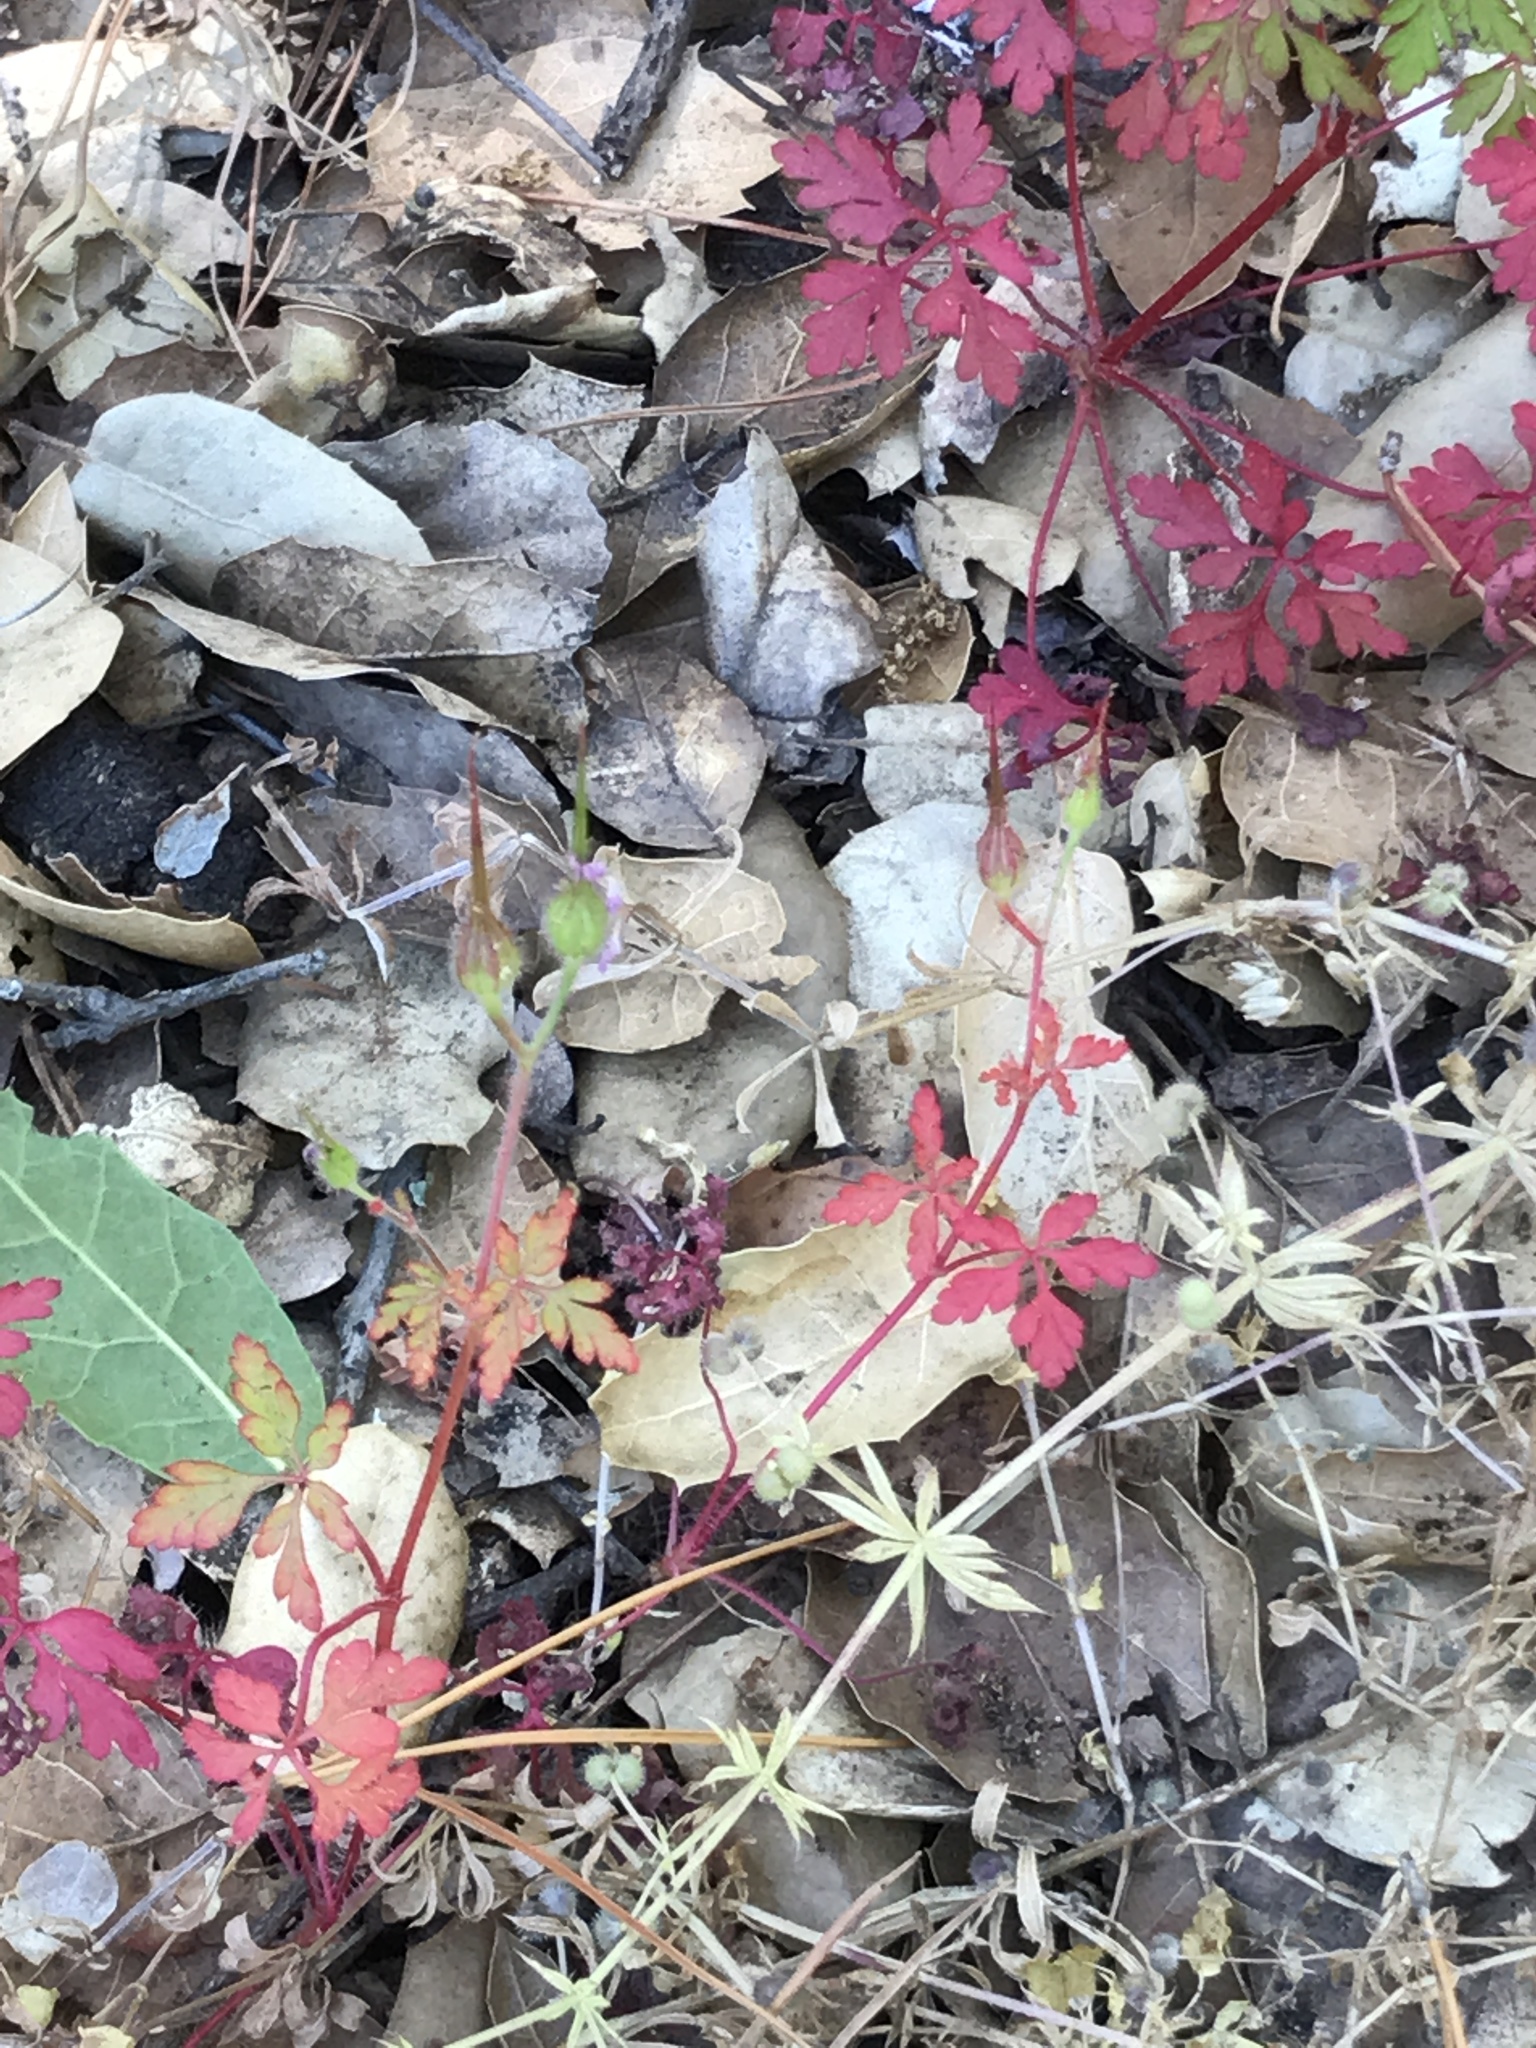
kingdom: Plantae
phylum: Tracheophyta
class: Magnoliopsida
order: Geraniales
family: Geraniaceae
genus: Geranium
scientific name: Geranium purpureum
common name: Little-robin
